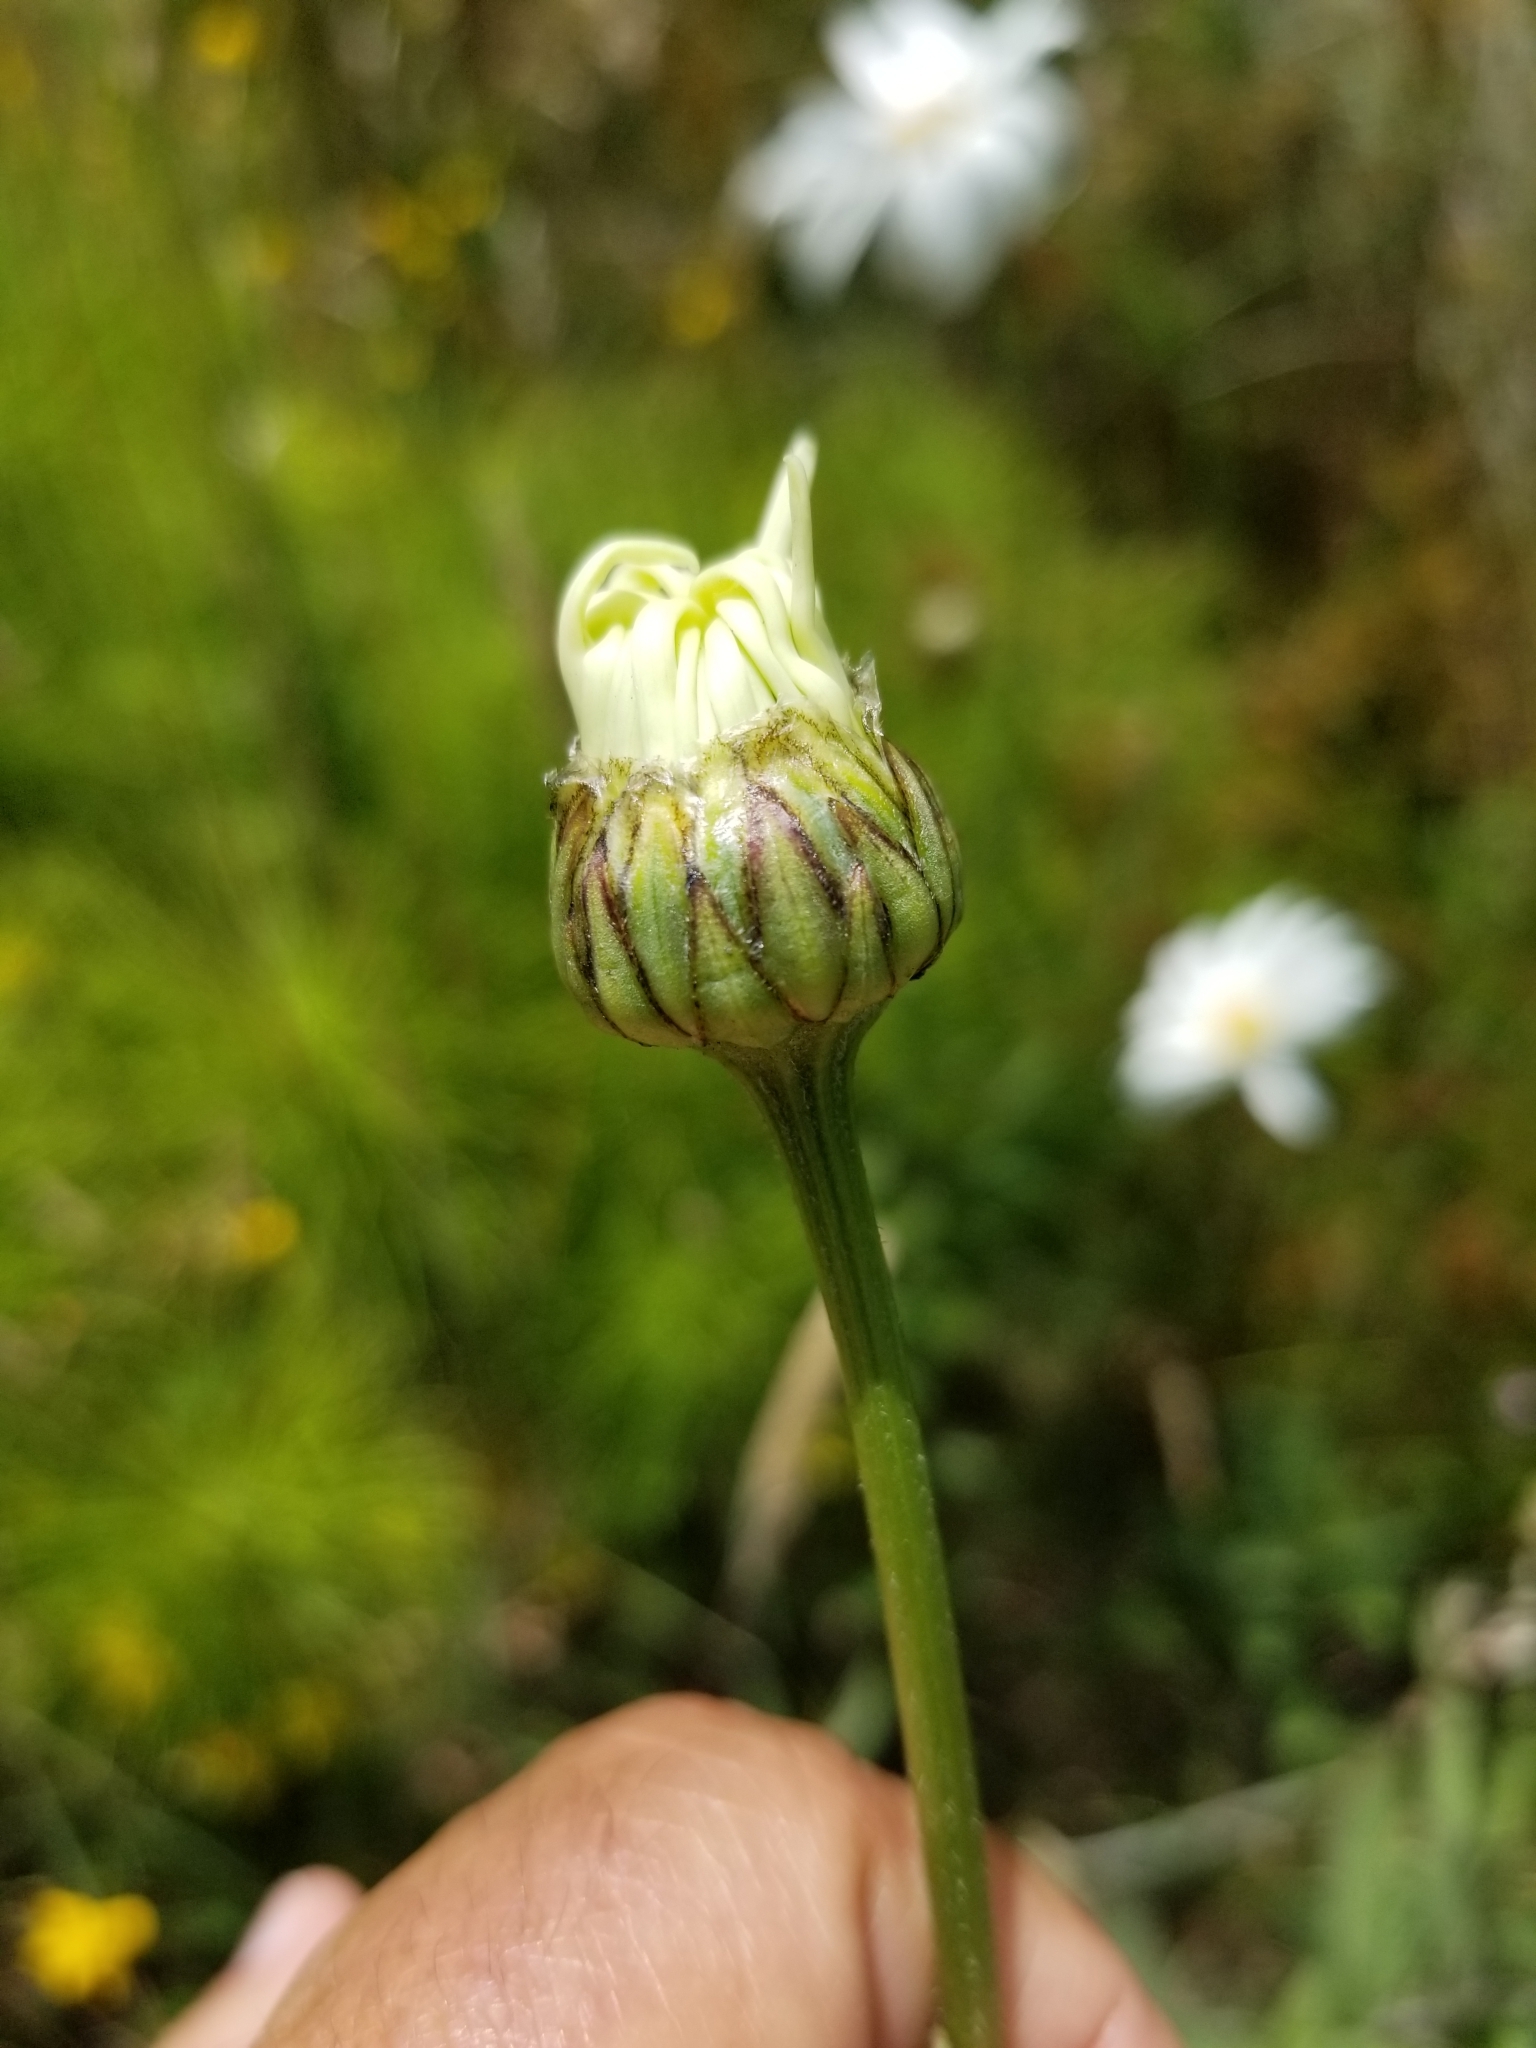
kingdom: Plantae
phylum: Tracheophyta
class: Magnoliopsida
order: Asterales
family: Asteraceae
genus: Leucanthemum
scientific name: Leucanthemum vulgare
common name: Oxeye daisy
